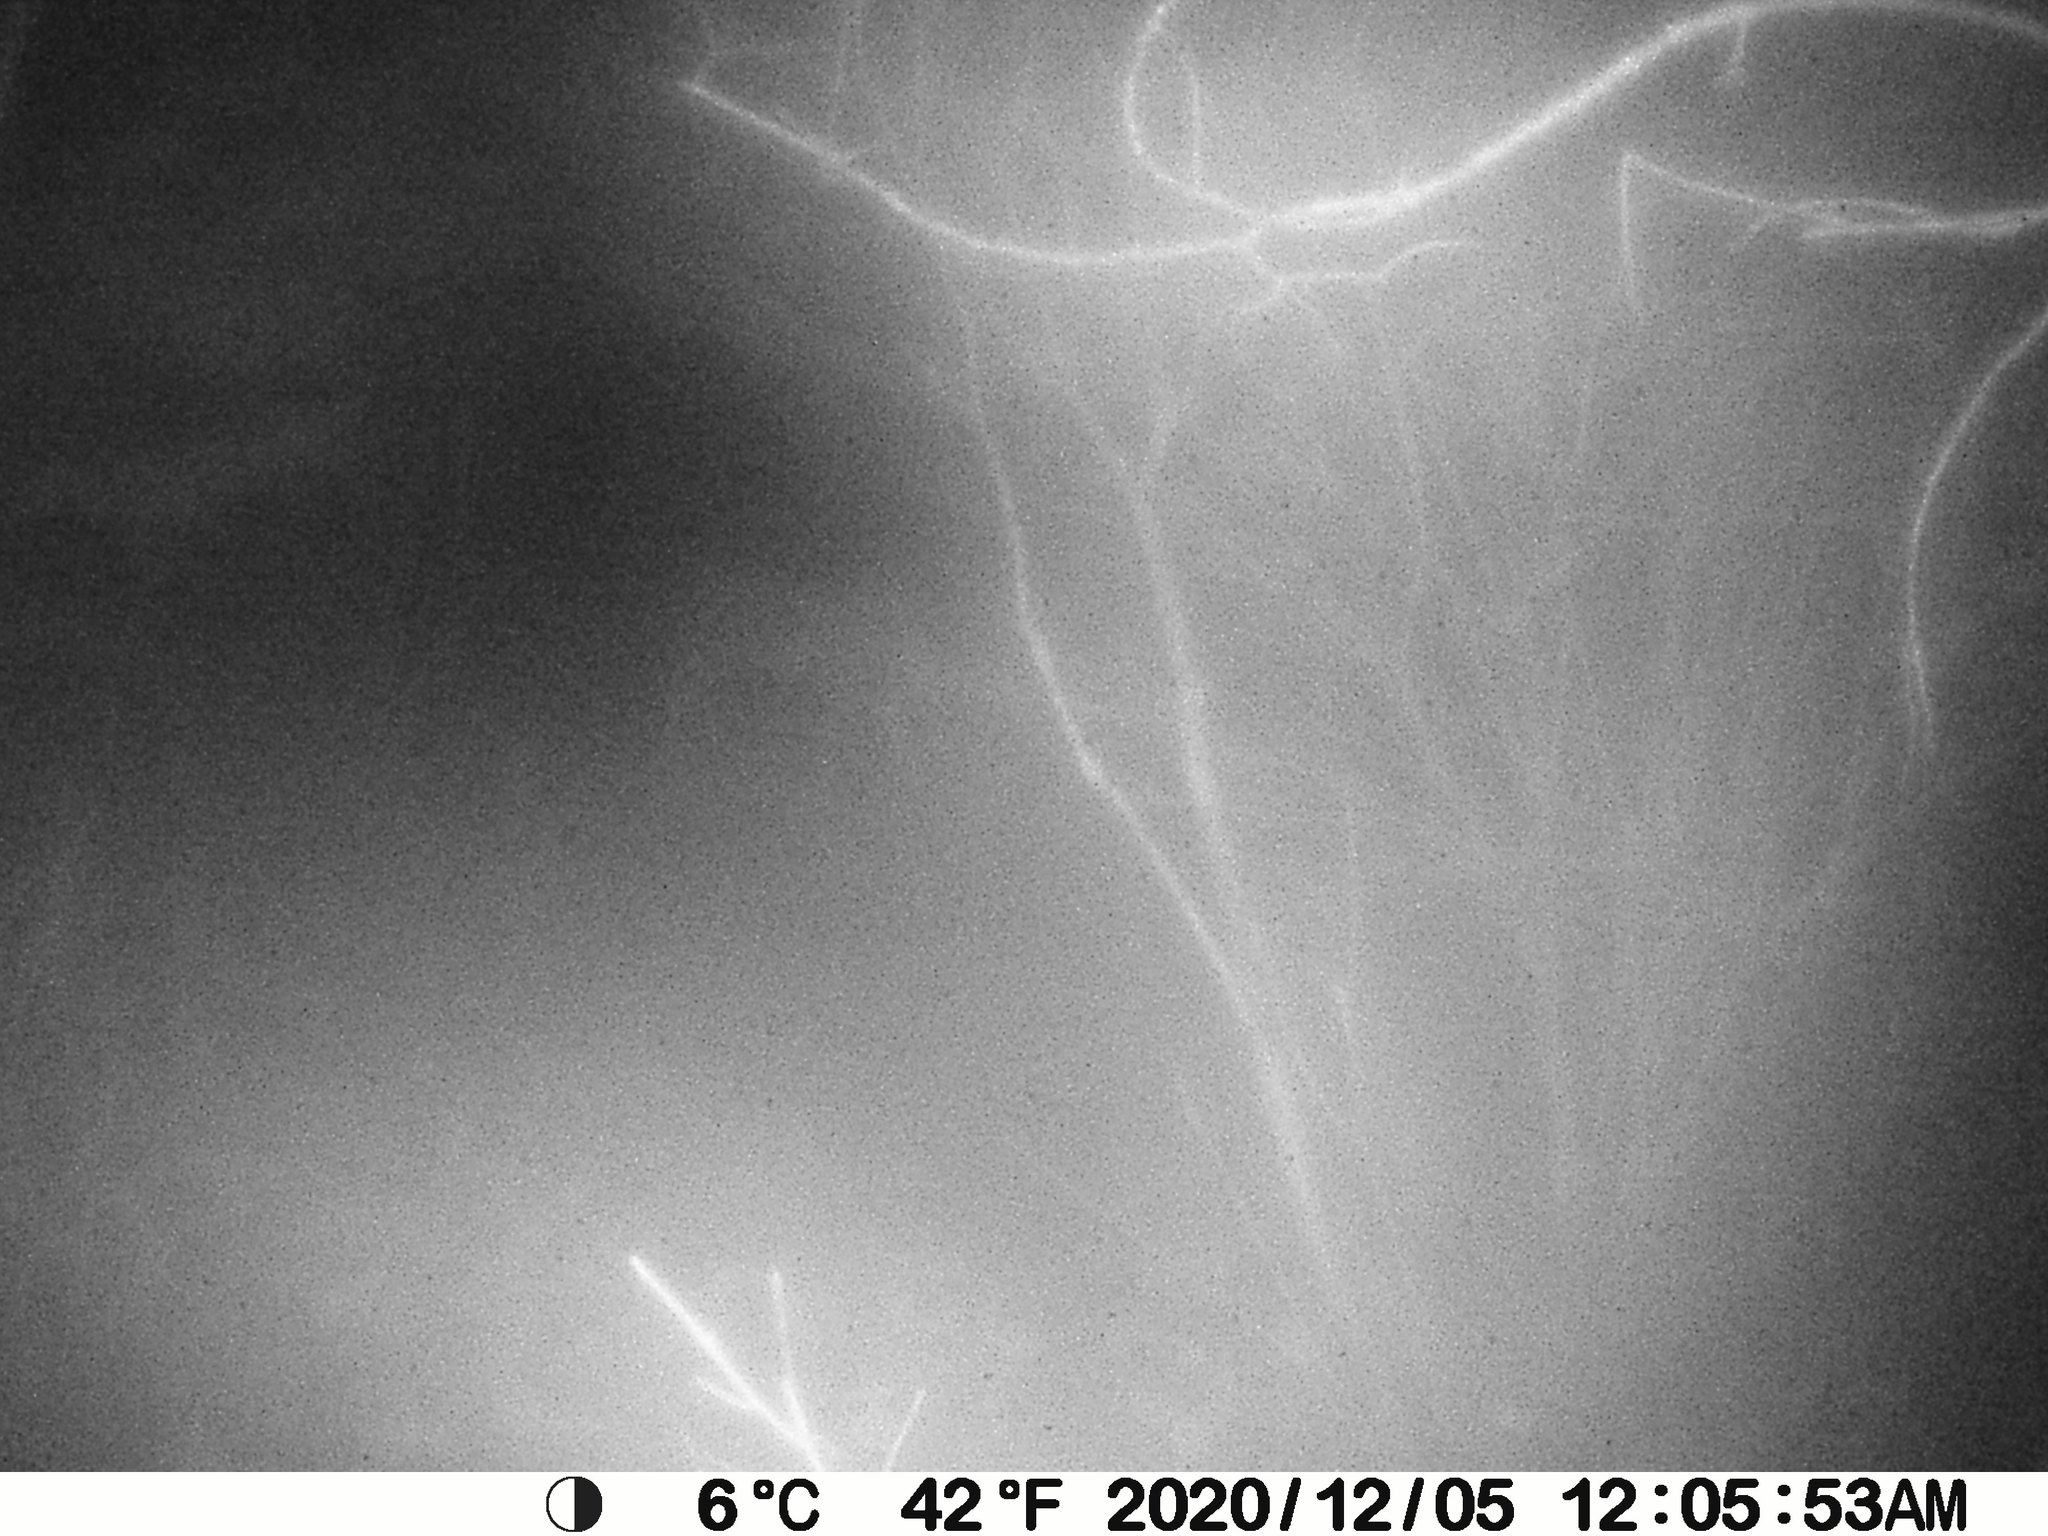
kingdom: Animalia
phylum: Chordata
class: Mammalia
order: Artiodactyla
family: Cervidae
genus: Odocoileus
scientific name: Odocoileus virginianus
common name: White-tailed deer
